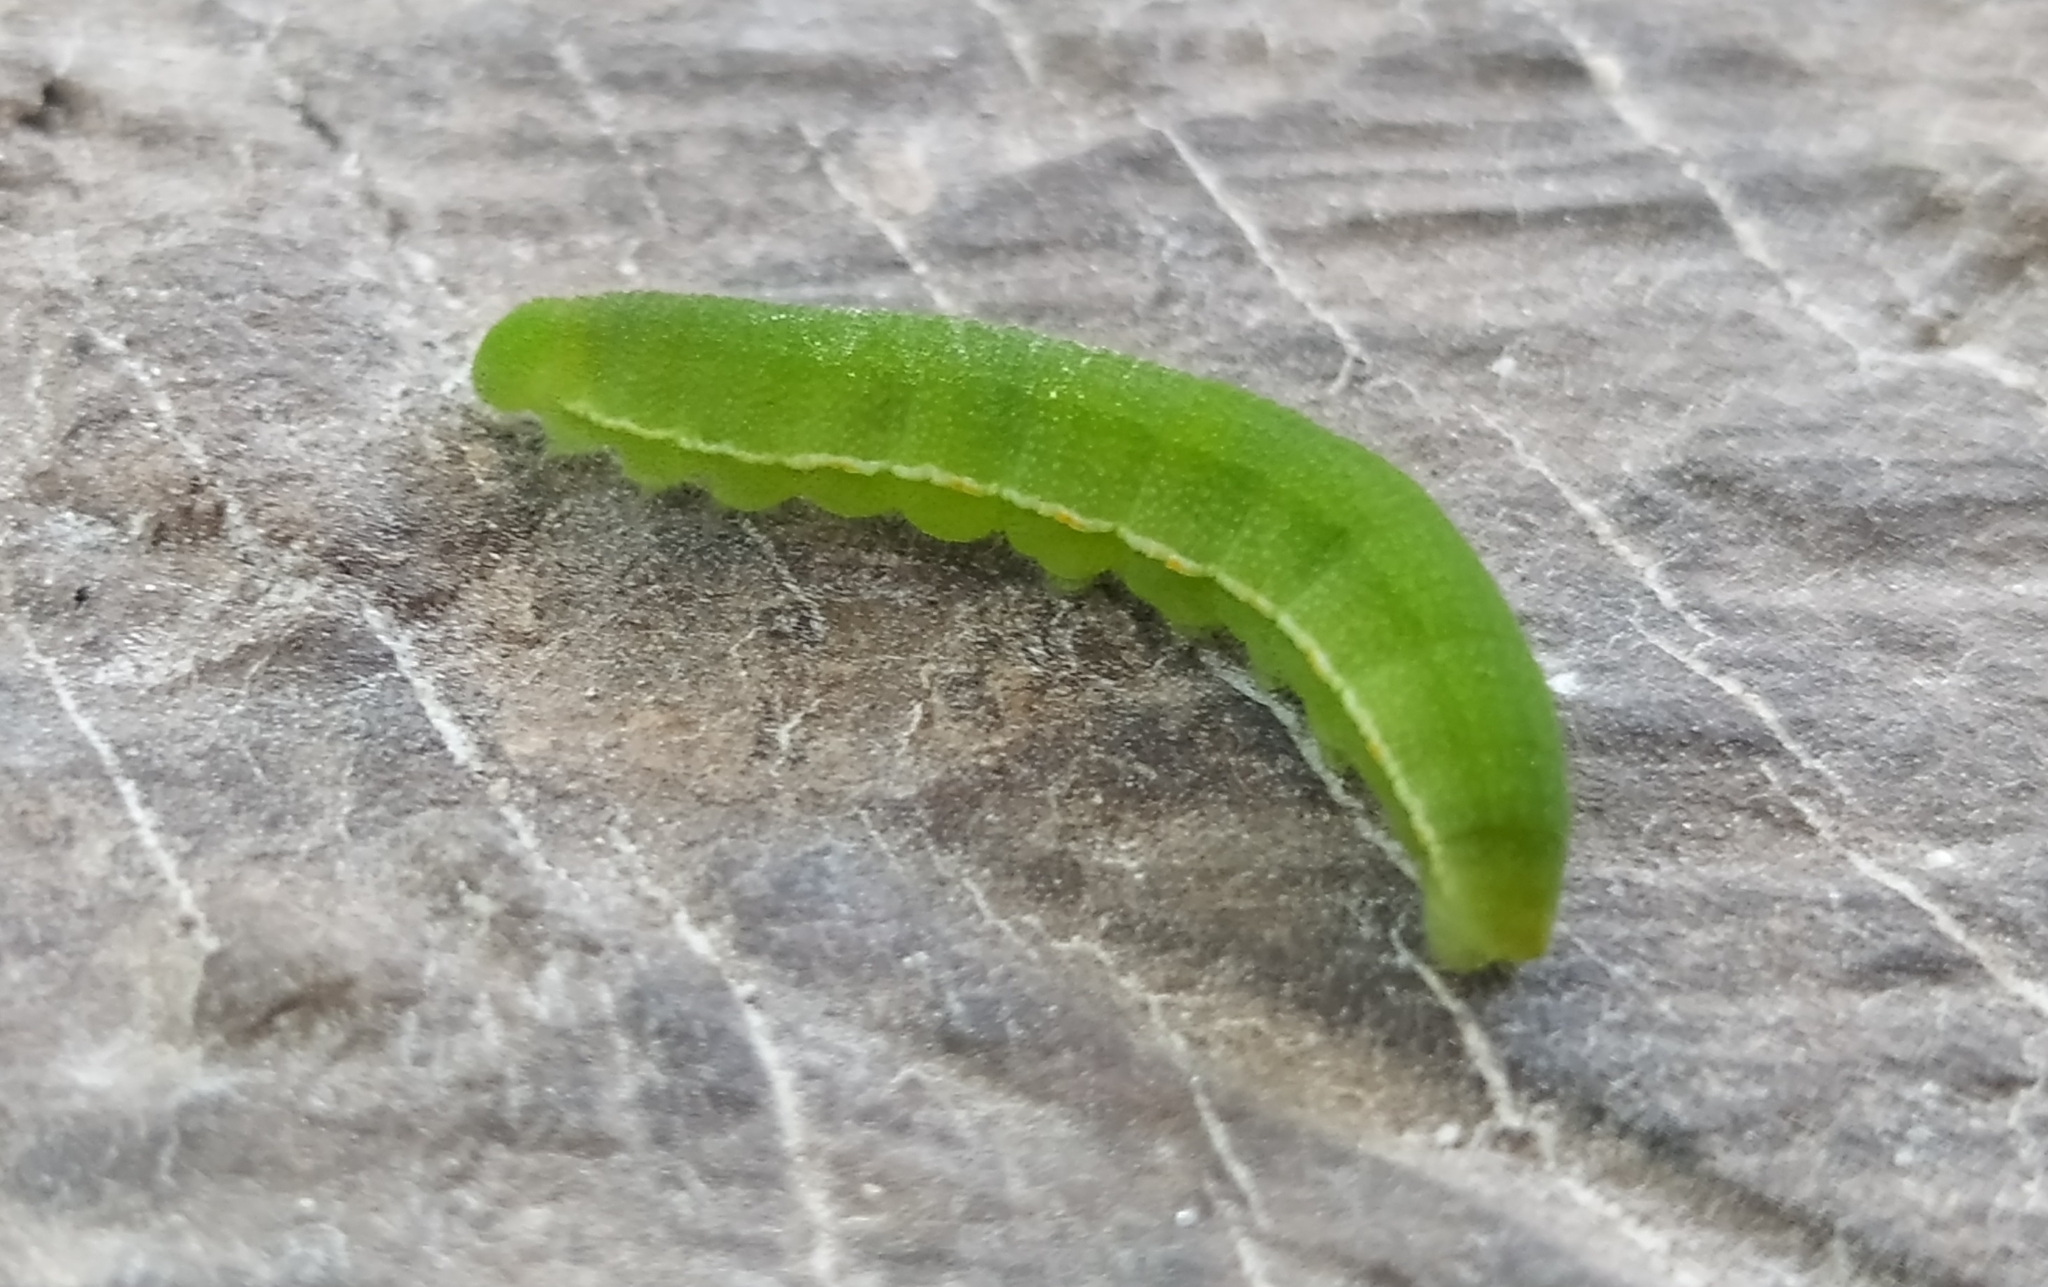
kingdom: Animalia
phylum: Arthropoda
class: Insecta
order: Lepidoptera
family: Pieridae
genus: Teriocolias
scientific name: Teriocolias
